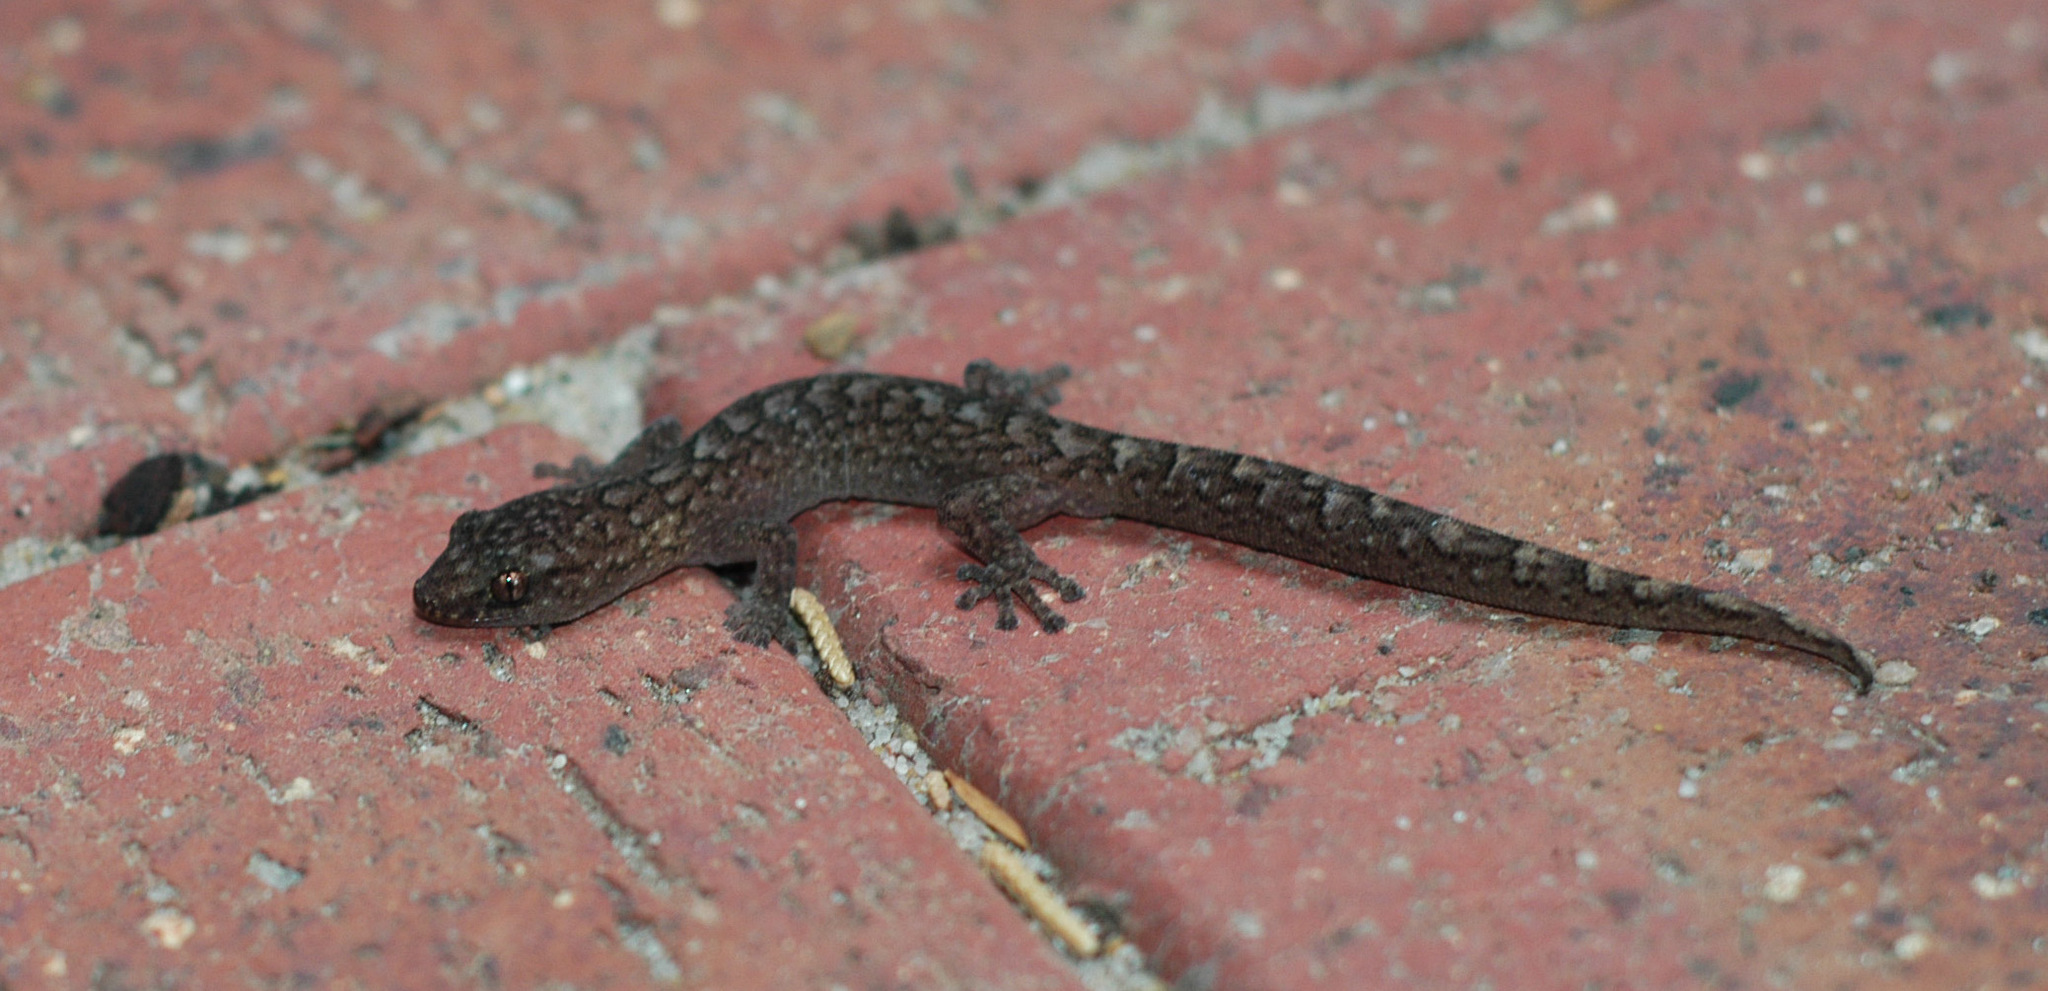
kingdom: Animalia
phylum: Chordata
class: Squamata
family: Gekkonidae
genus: Christinus
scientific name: Christinus marmoratus
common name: Marbled gecko
